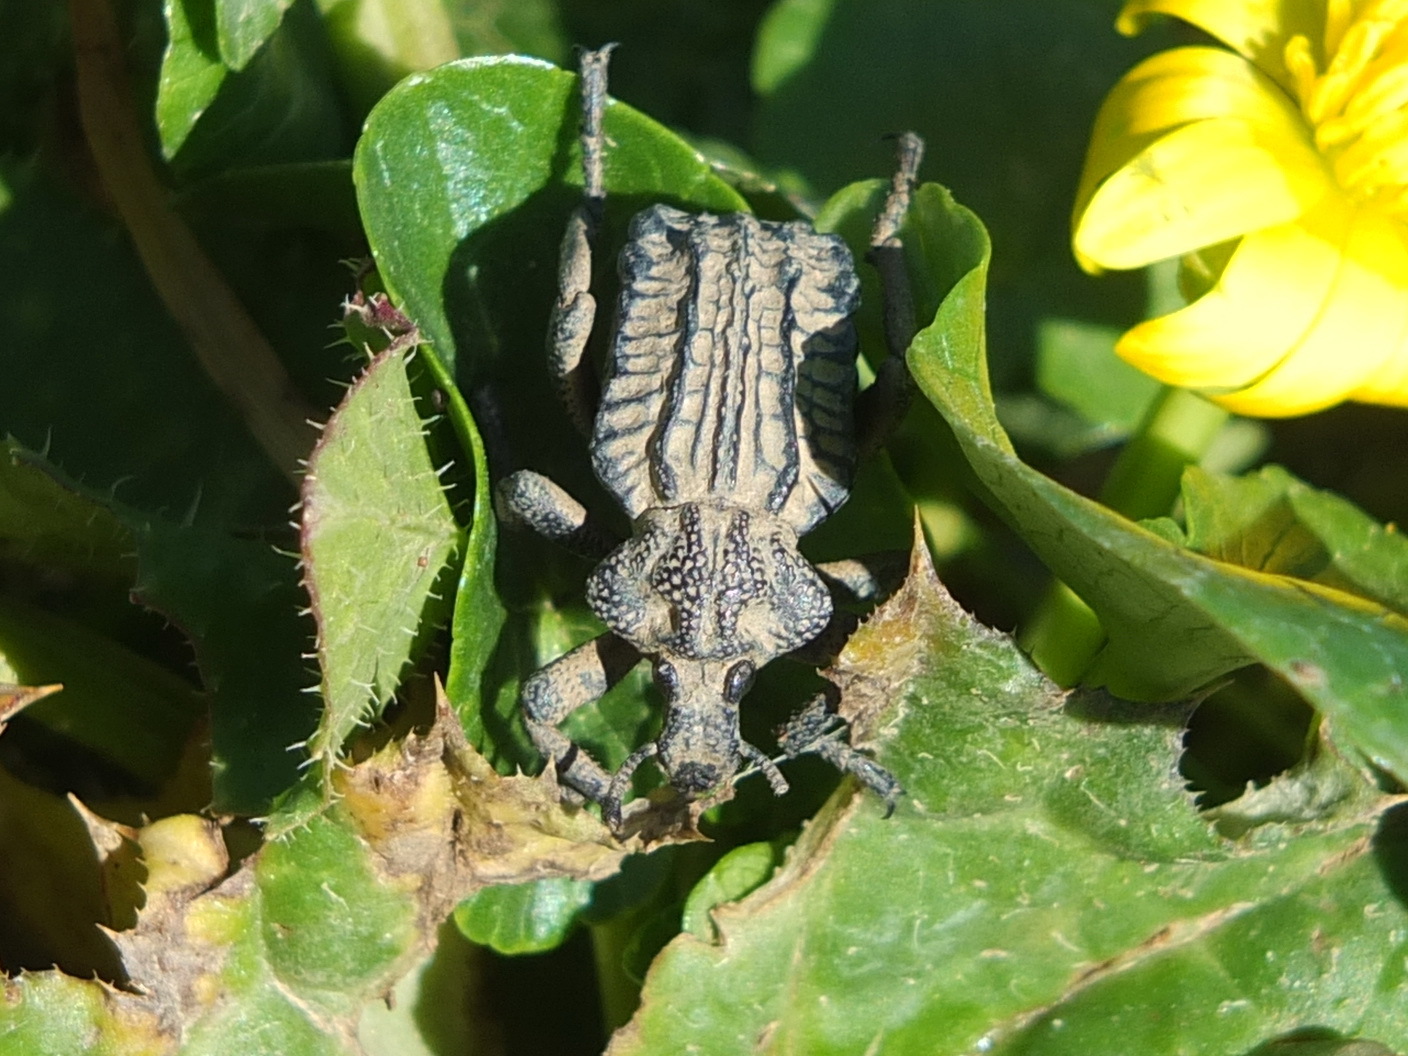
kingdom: Animalia
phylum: Arthropoda
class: Insecta
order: Coleoptera
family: Brachyceridae
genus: Brachycerus
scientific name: Brachycerus undatus
